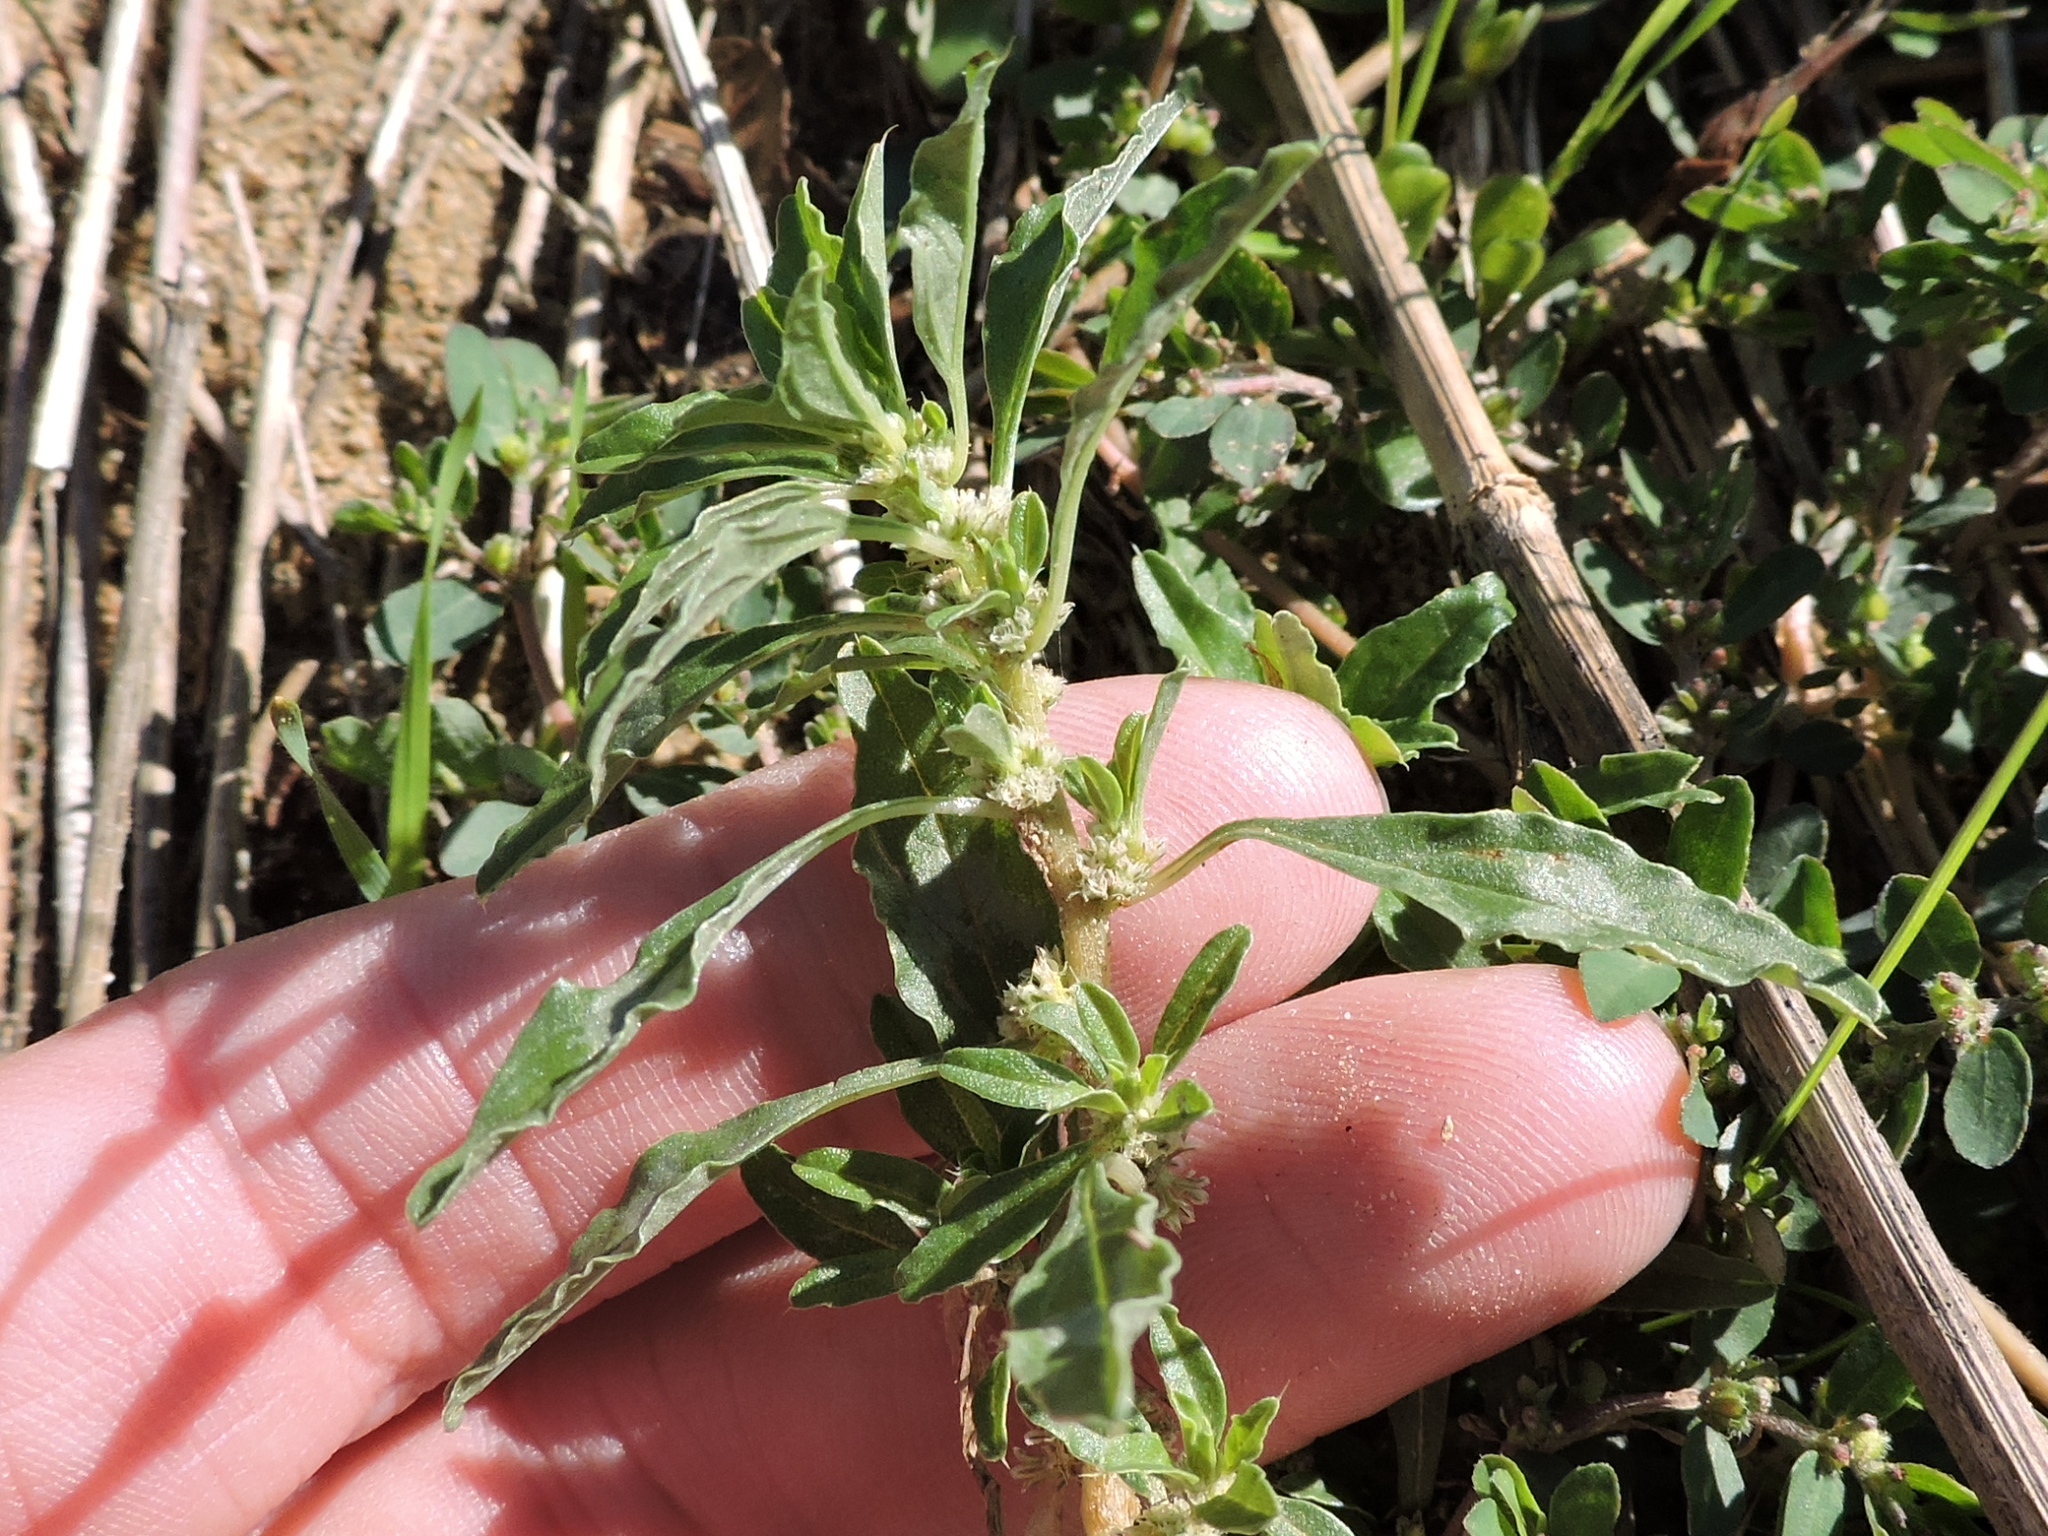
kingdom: Plantae
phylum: Tracheophyta
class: Magnoliopsida
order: Caryophyllales
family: Amaranthaceae
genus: Amaranthus
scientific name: Amaranthus polygonoides
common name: Tropical amaranth
